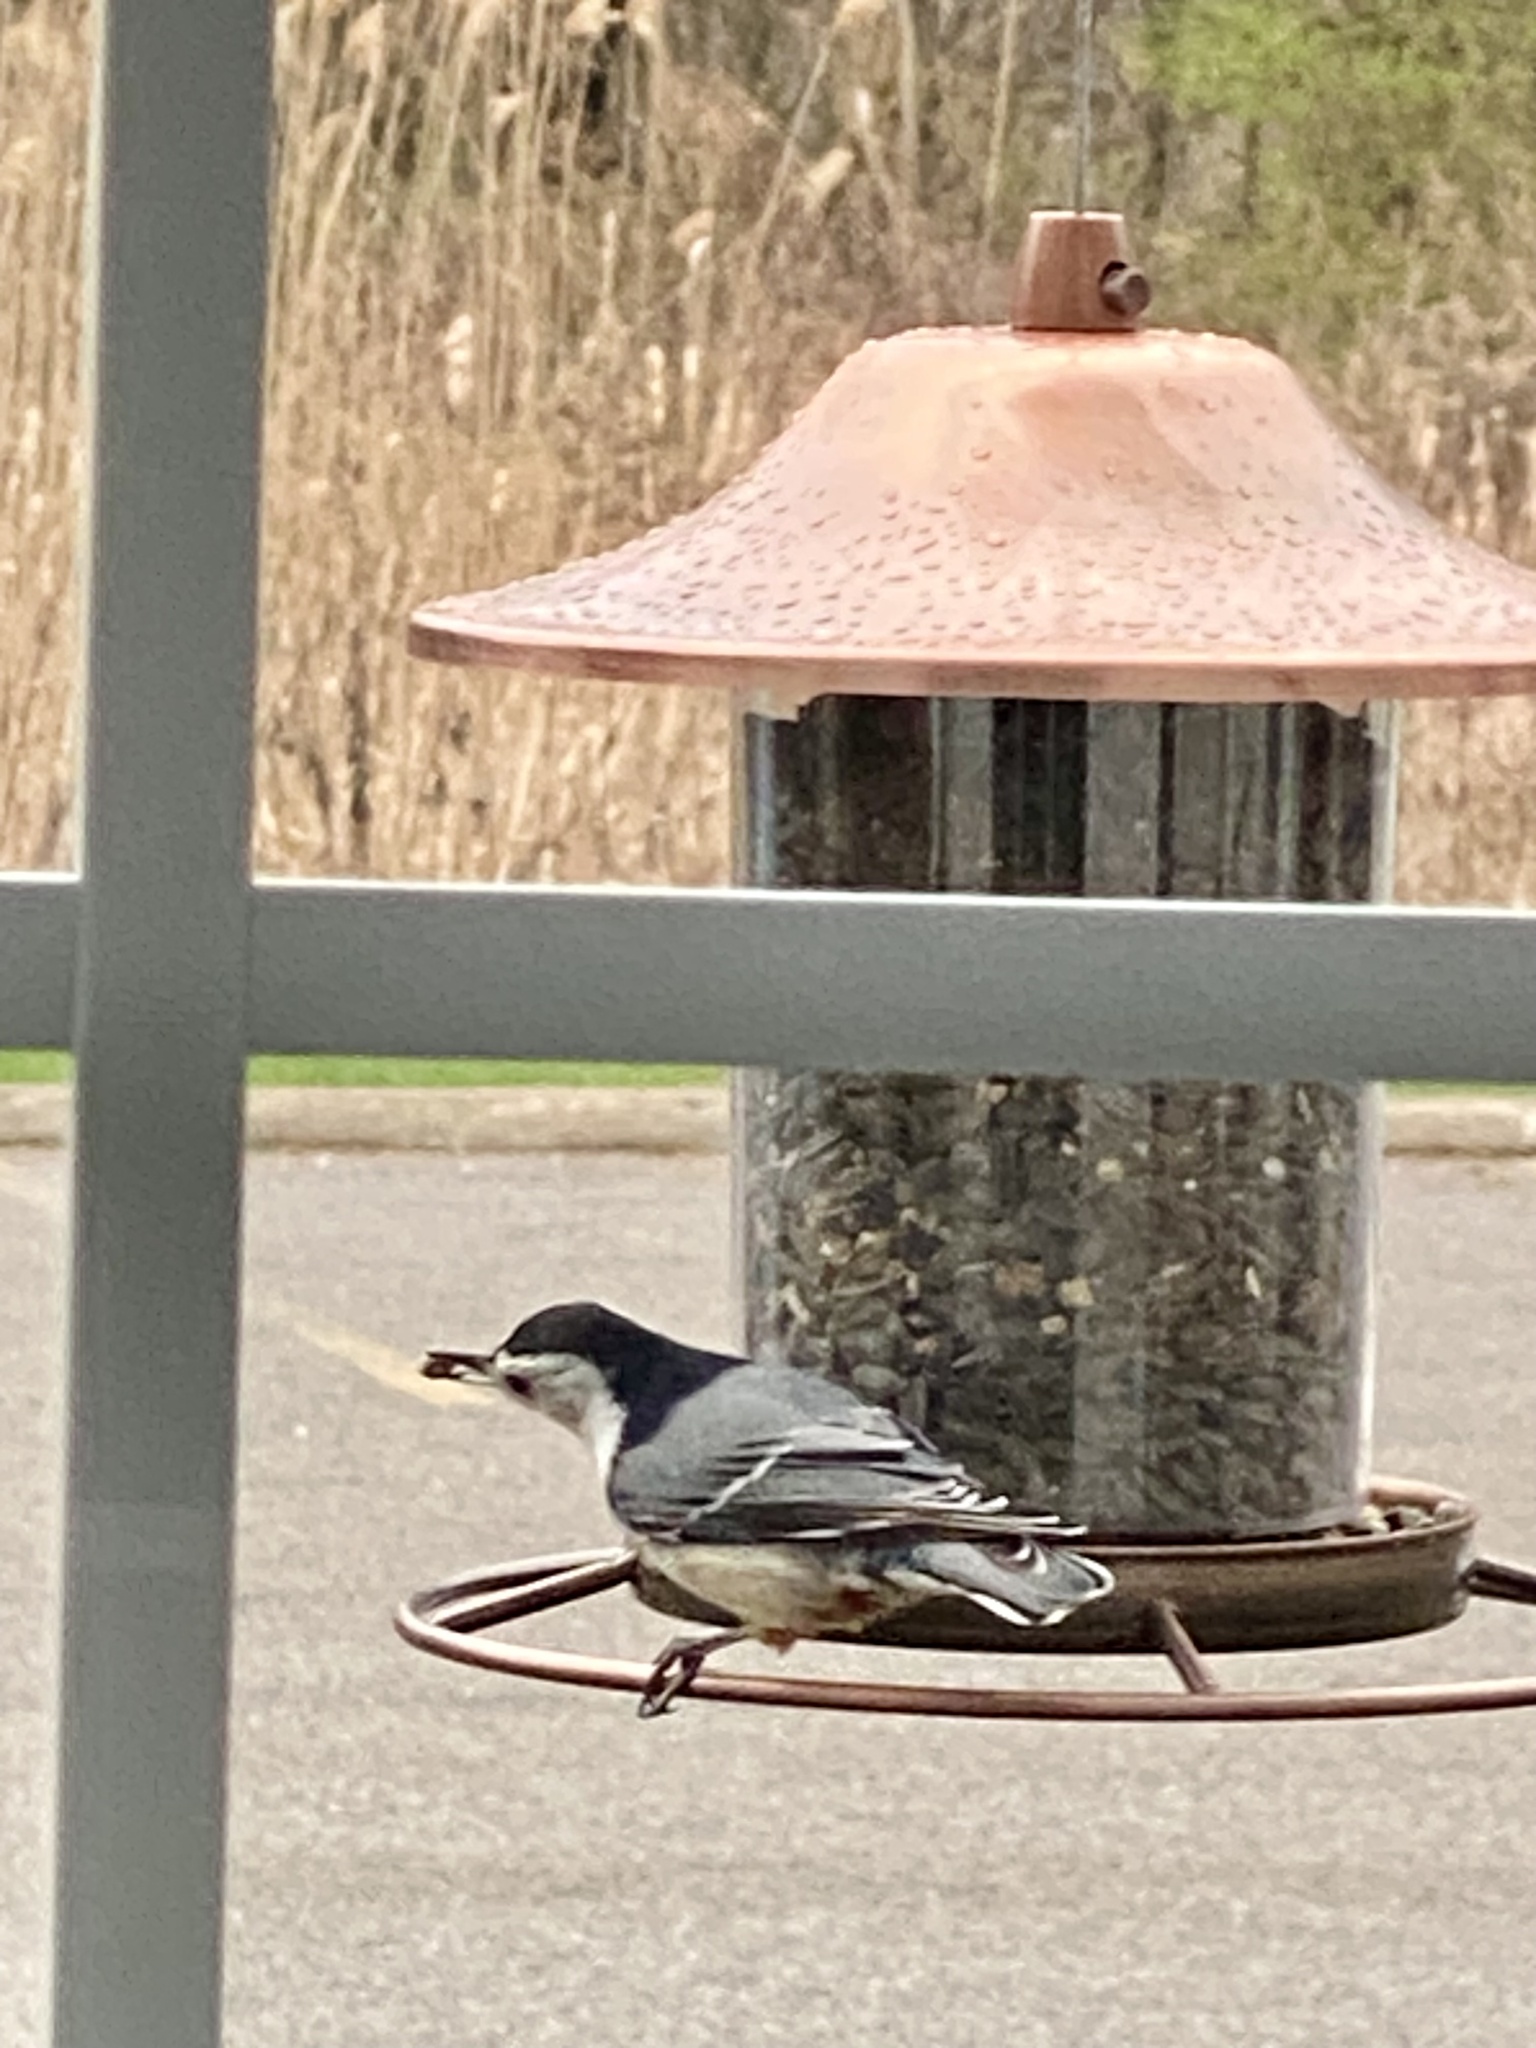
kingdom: Animalia
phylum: Chordata
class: Aves
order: Passeriformes
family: Sittidae
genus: Sitta
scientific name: Sitta carolinensis
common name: White-breasted nuthatch
